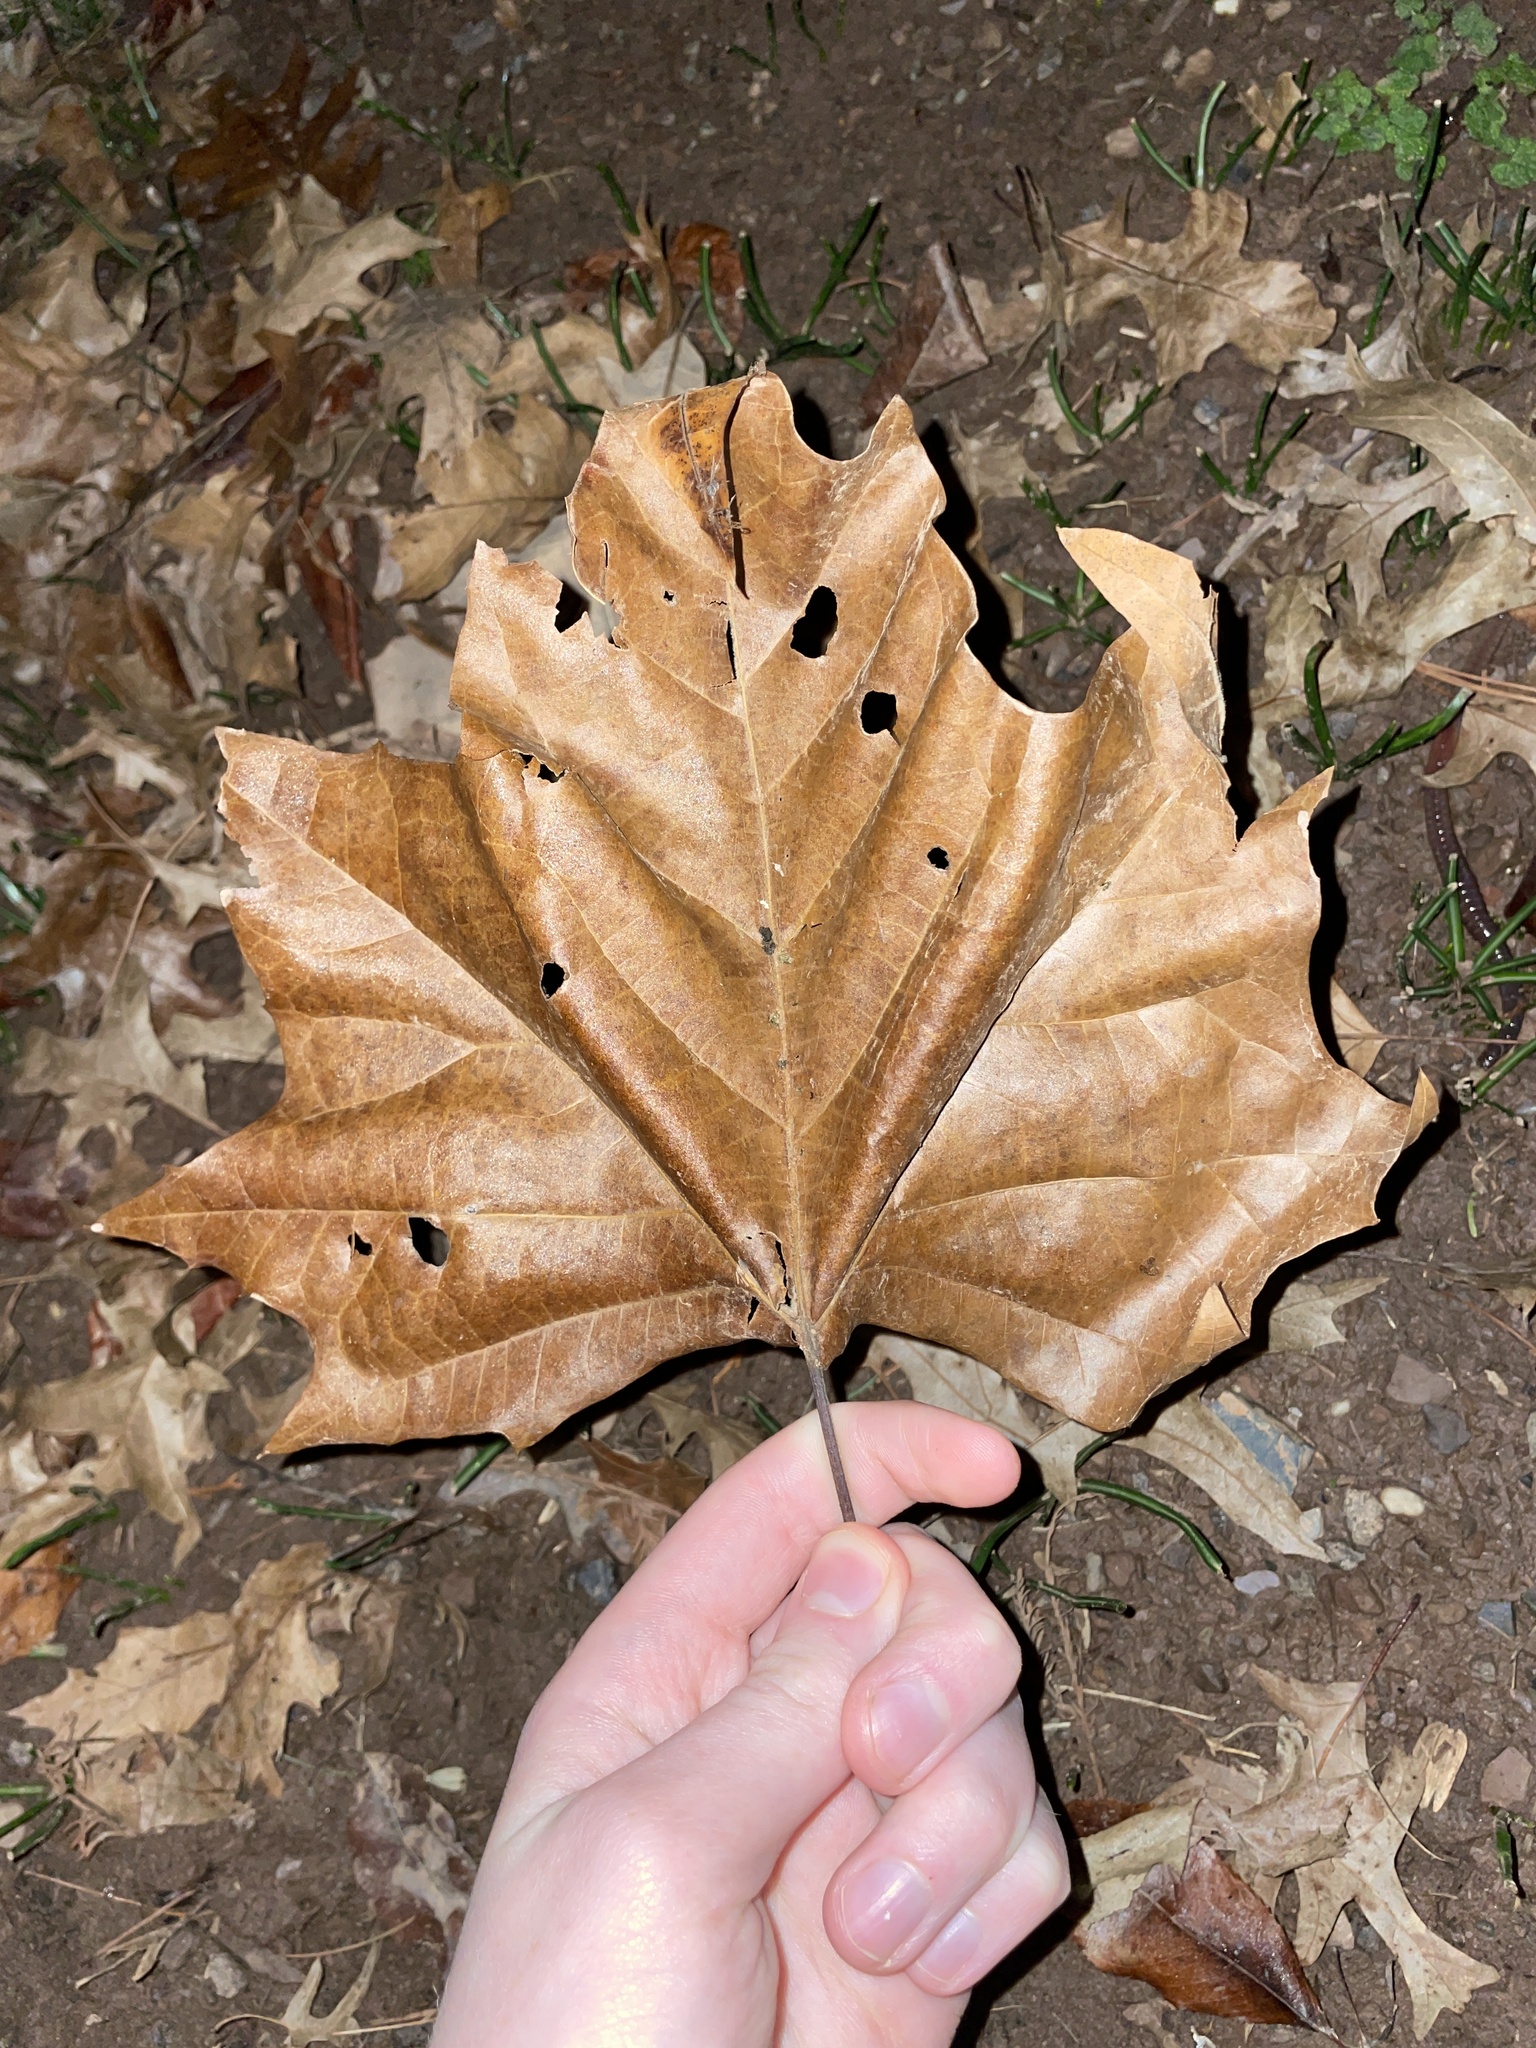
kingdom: Plantae
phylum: Tracheophyta
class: Magnoliopsida
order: Proteales
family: Platanaceae
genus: Platanus
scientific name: Platanus occidentalis
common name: American sycamore
